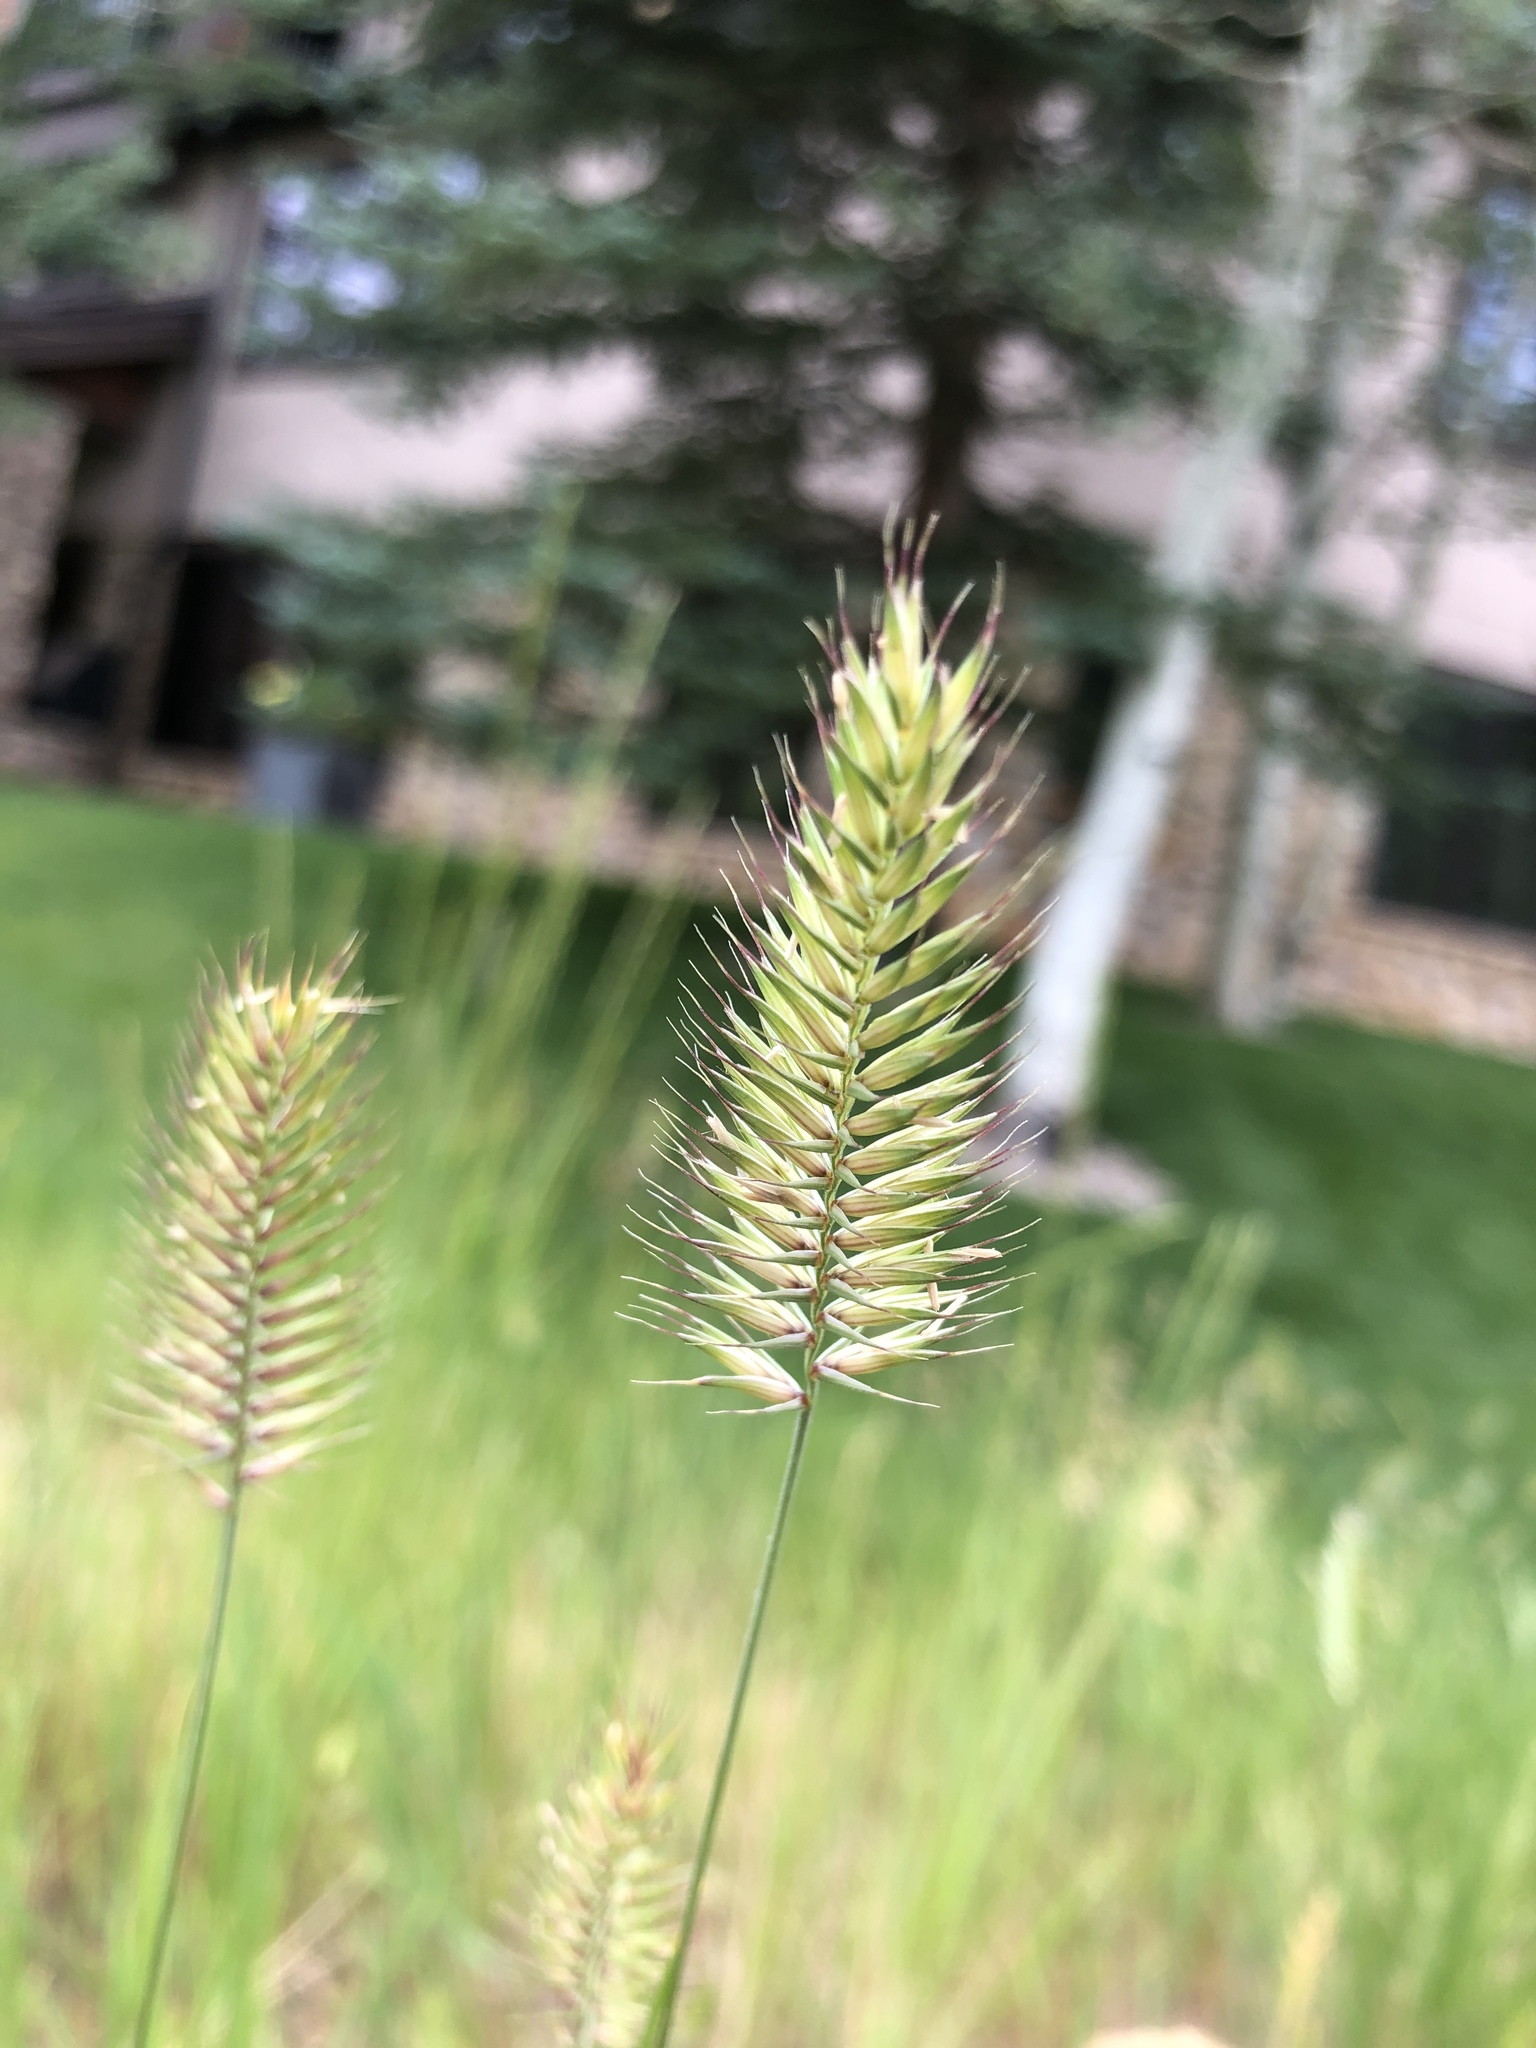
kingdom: Plantae
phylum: Tracheophyta
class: Liliopsida
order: Poales
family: Poaceae
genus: Agropyron
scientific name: Agropyron cristatum
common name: Crested wheatgrass
